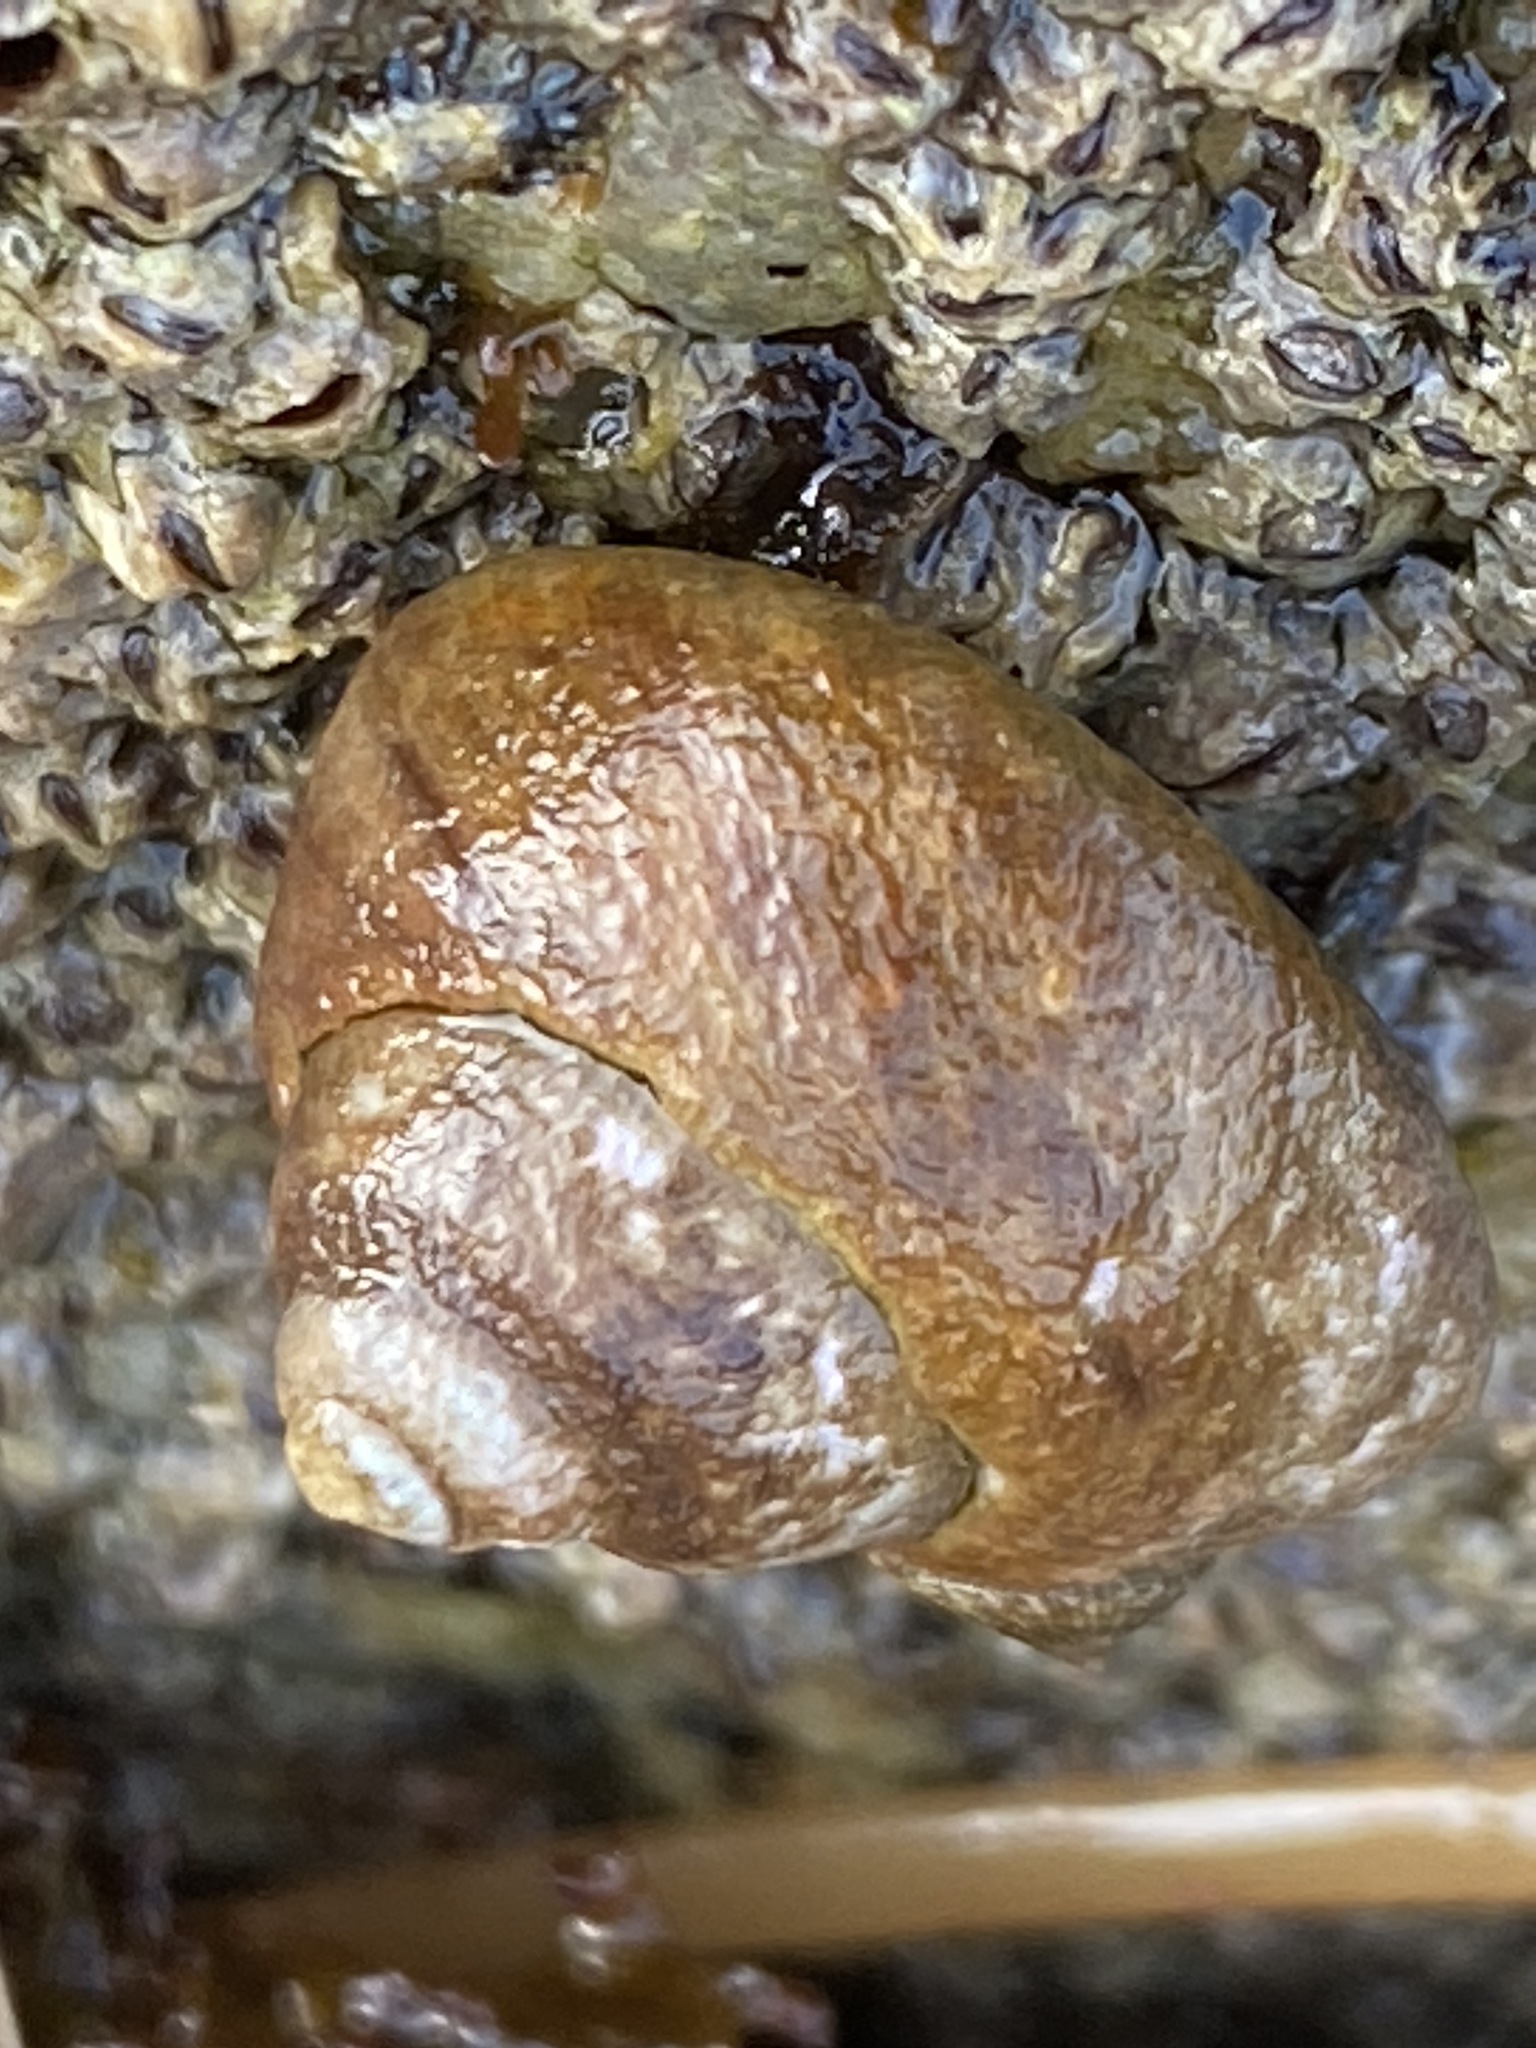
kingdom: Animalia
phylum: Mollusca
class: Gastropoda
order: Trochida
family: Tegulidae
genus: Tegula
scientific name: Tegula brunnea
